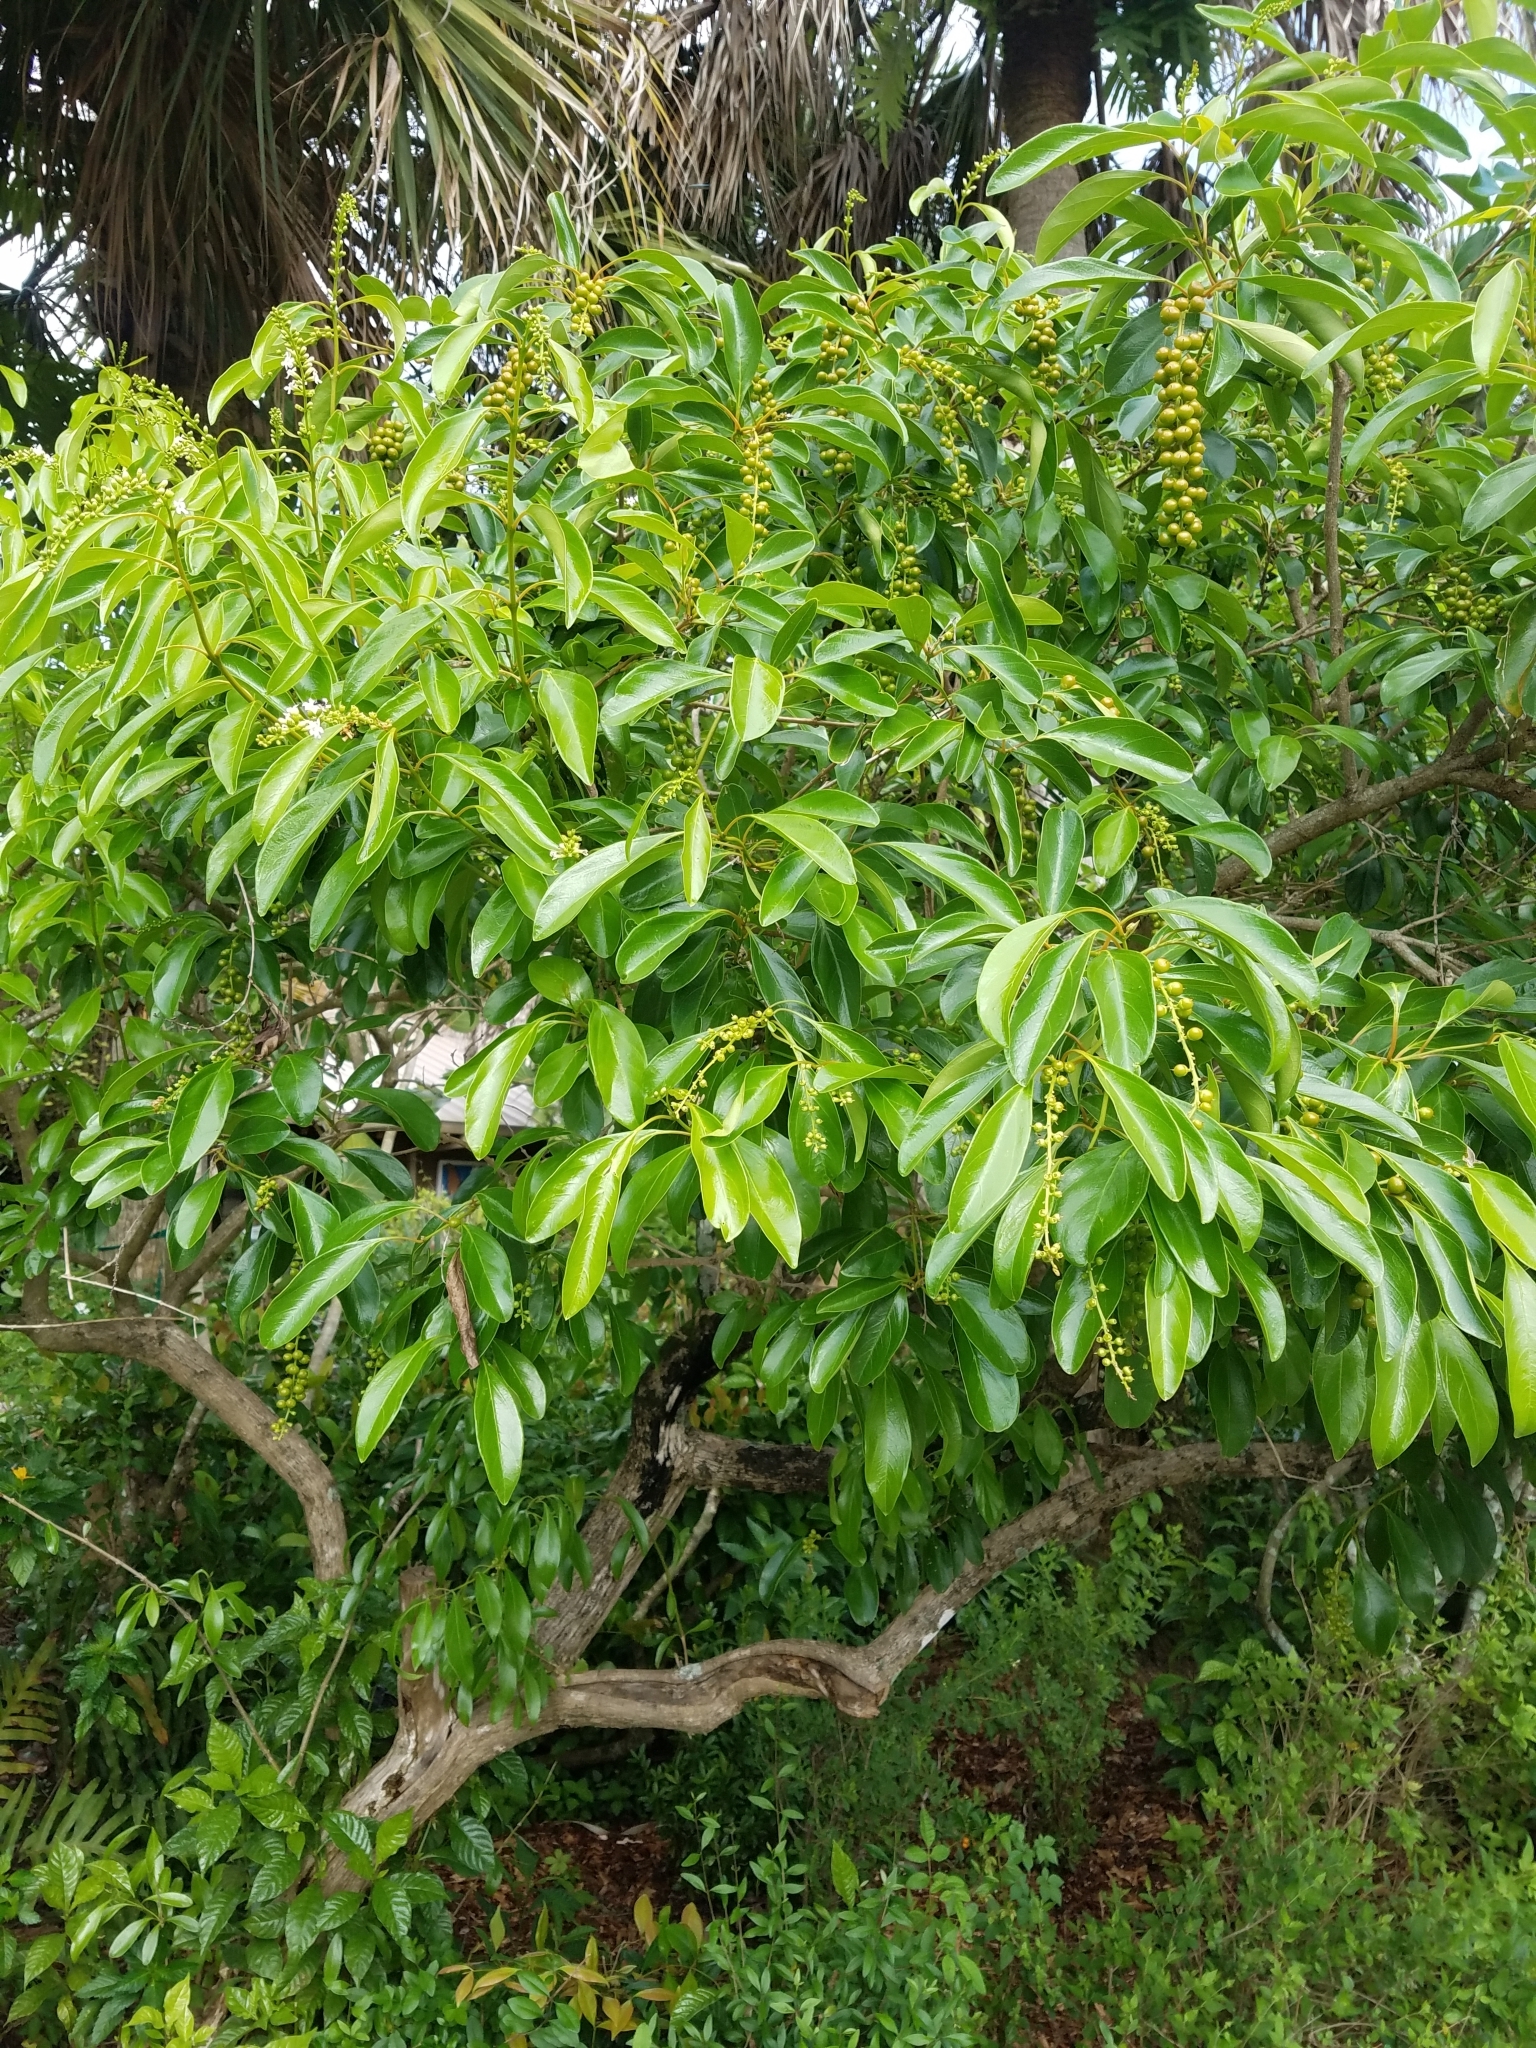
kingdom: Plantae
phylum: Tracheophyta
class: Magnoliopsida
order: Lamiales
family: Verbenaceae
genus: Citharexylum
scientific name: Citharexylum spinosum
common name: Fiddlewood
